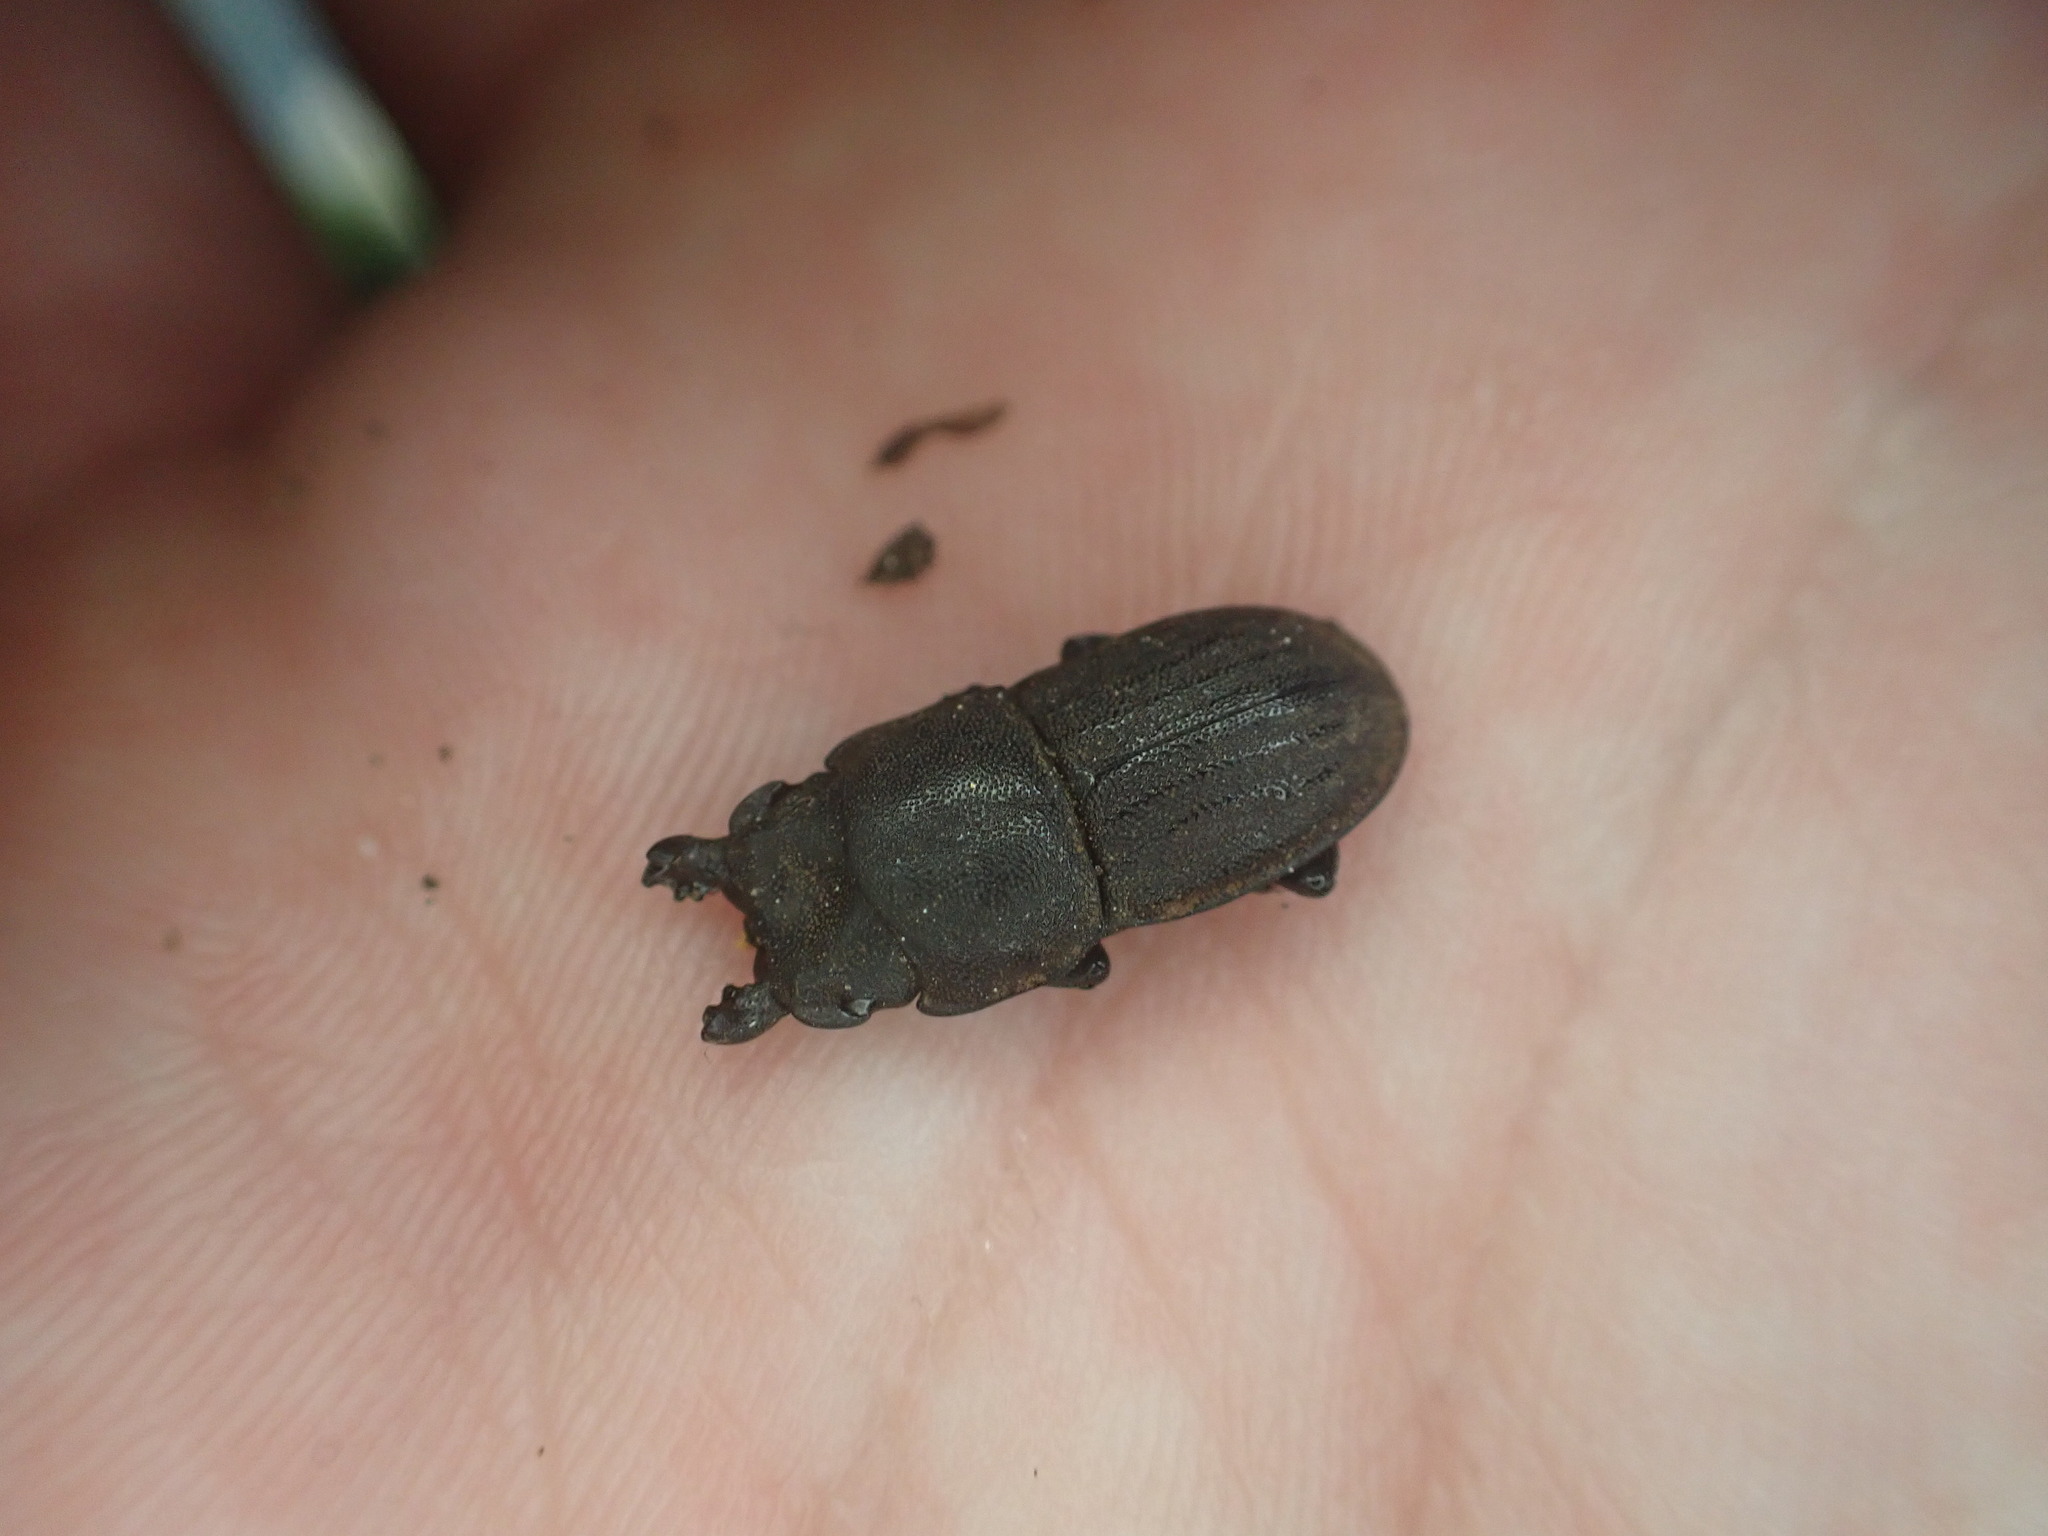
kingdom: Animalia
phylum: Arthropoda
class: Insecta
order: Coleoptera
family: Lucanidae
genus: Geodorcus
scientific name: Geodorcus novaezealandiae
